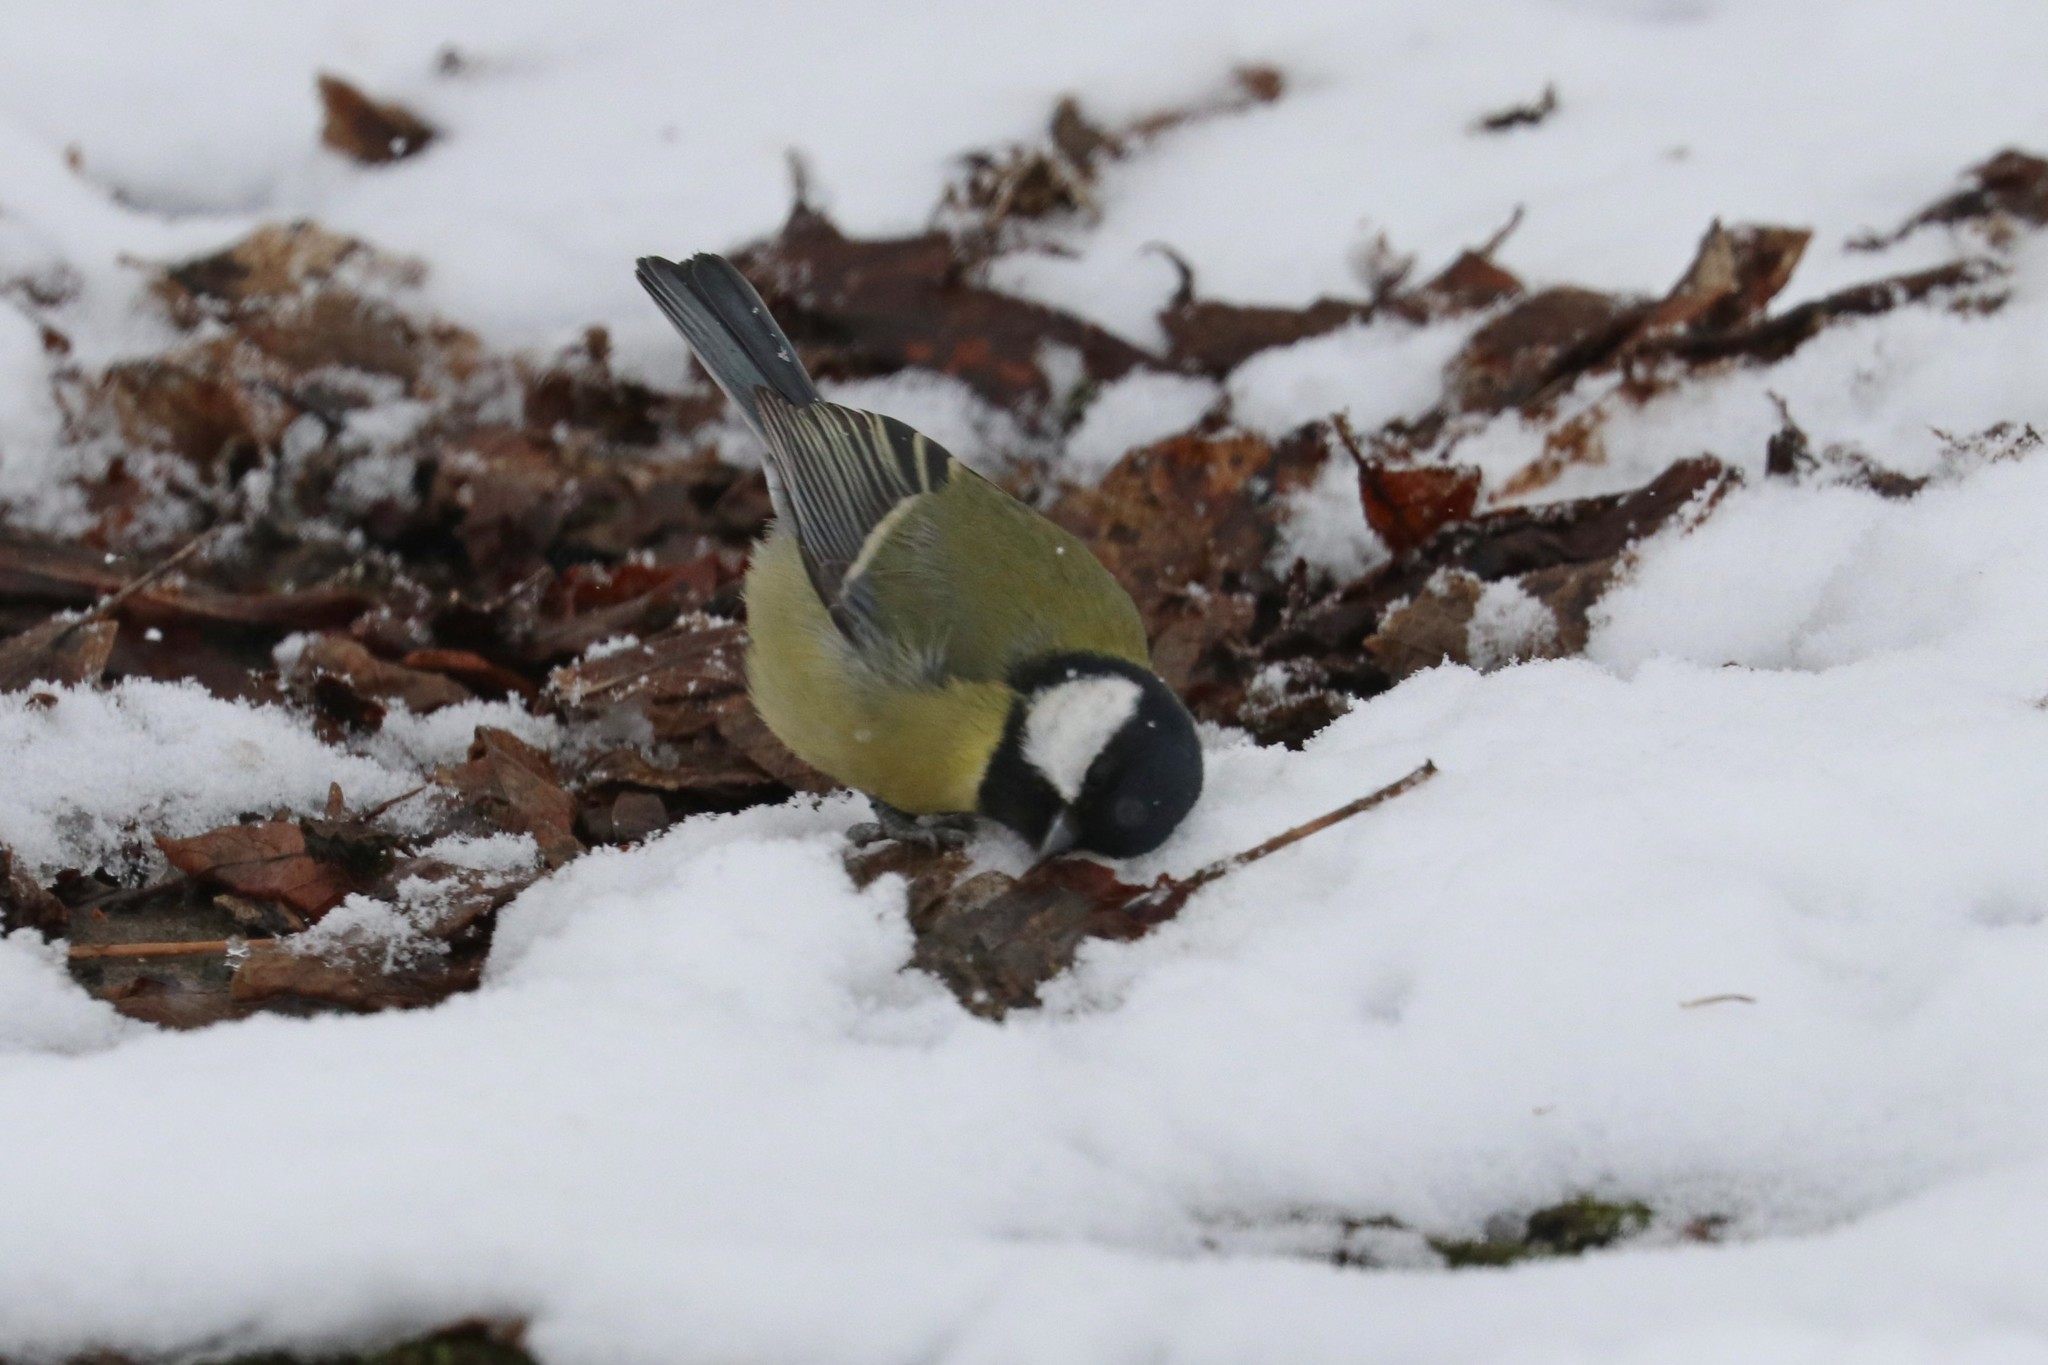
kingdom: Animalia
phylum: Chordata
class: Aves
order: Passeriformes
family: Paridae
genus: Parus
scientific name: Parus major
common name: Great tit
